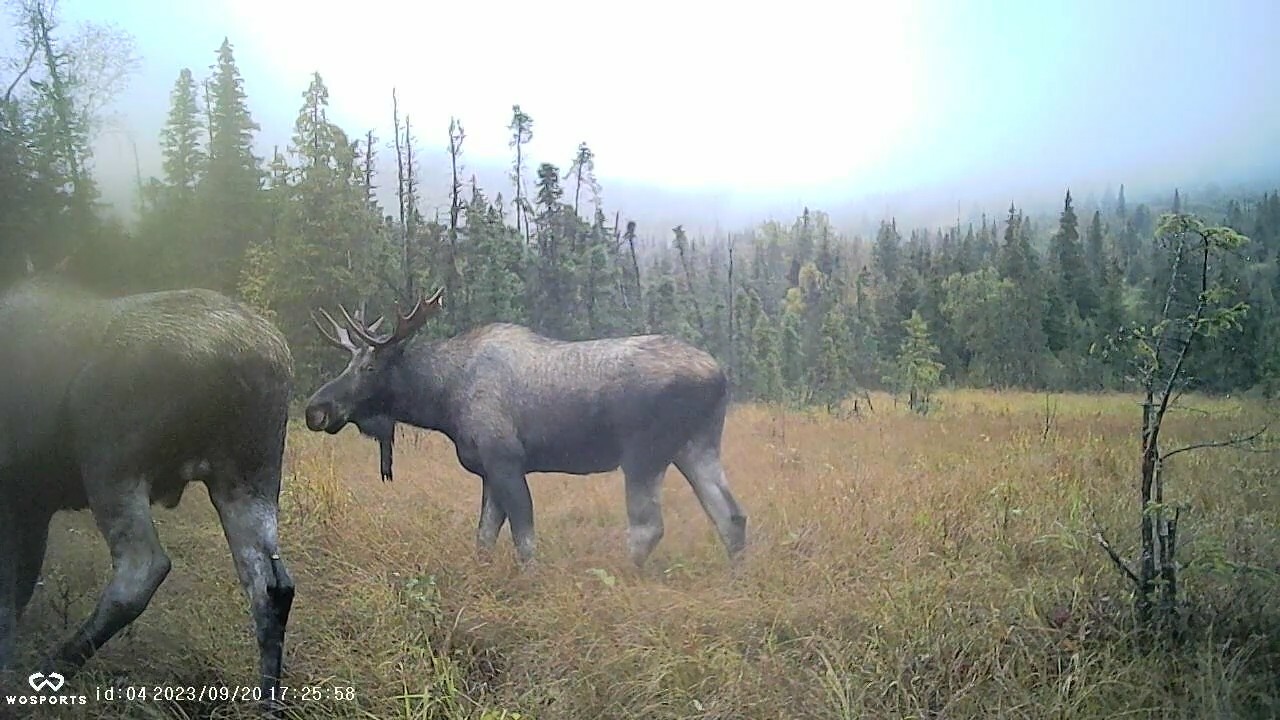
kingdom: Animalia
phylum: Chordata
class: Mammalia
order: Artiodactyla
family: Cervidae
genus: Alces
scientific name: Alces alces
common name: Moose
